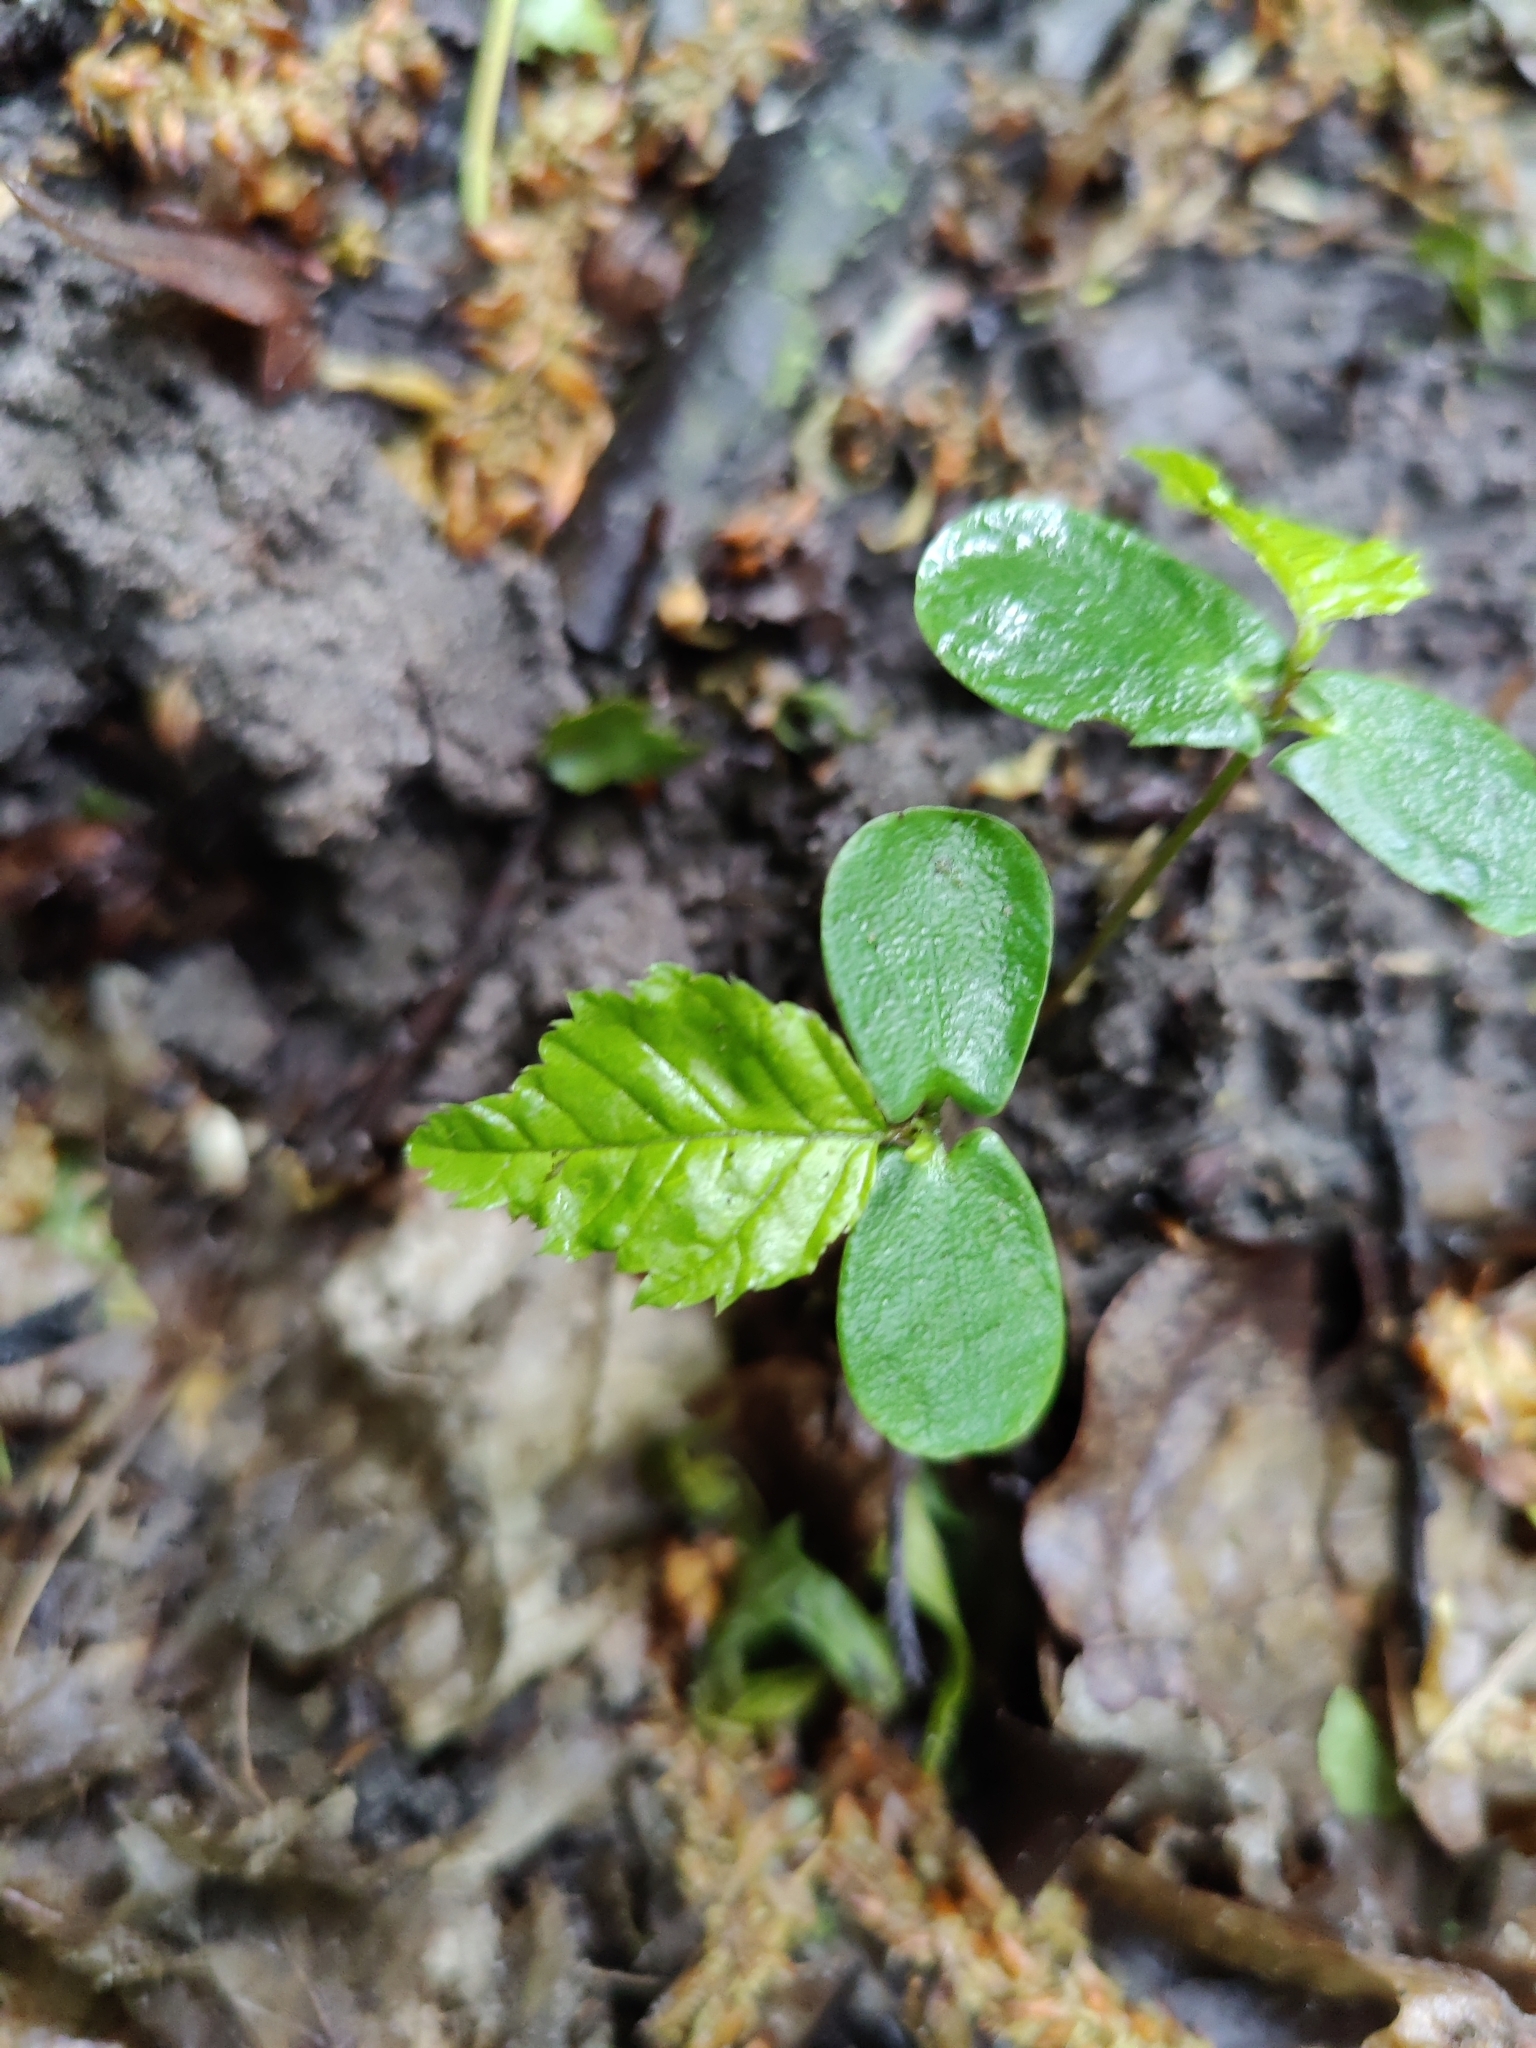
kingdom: Plantae
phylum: Tracheophyta
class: Magnoliopsida
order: Fagales
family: Betulaceae
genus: Carpinus
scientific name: Carpinus betulus
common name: Hornbeam
